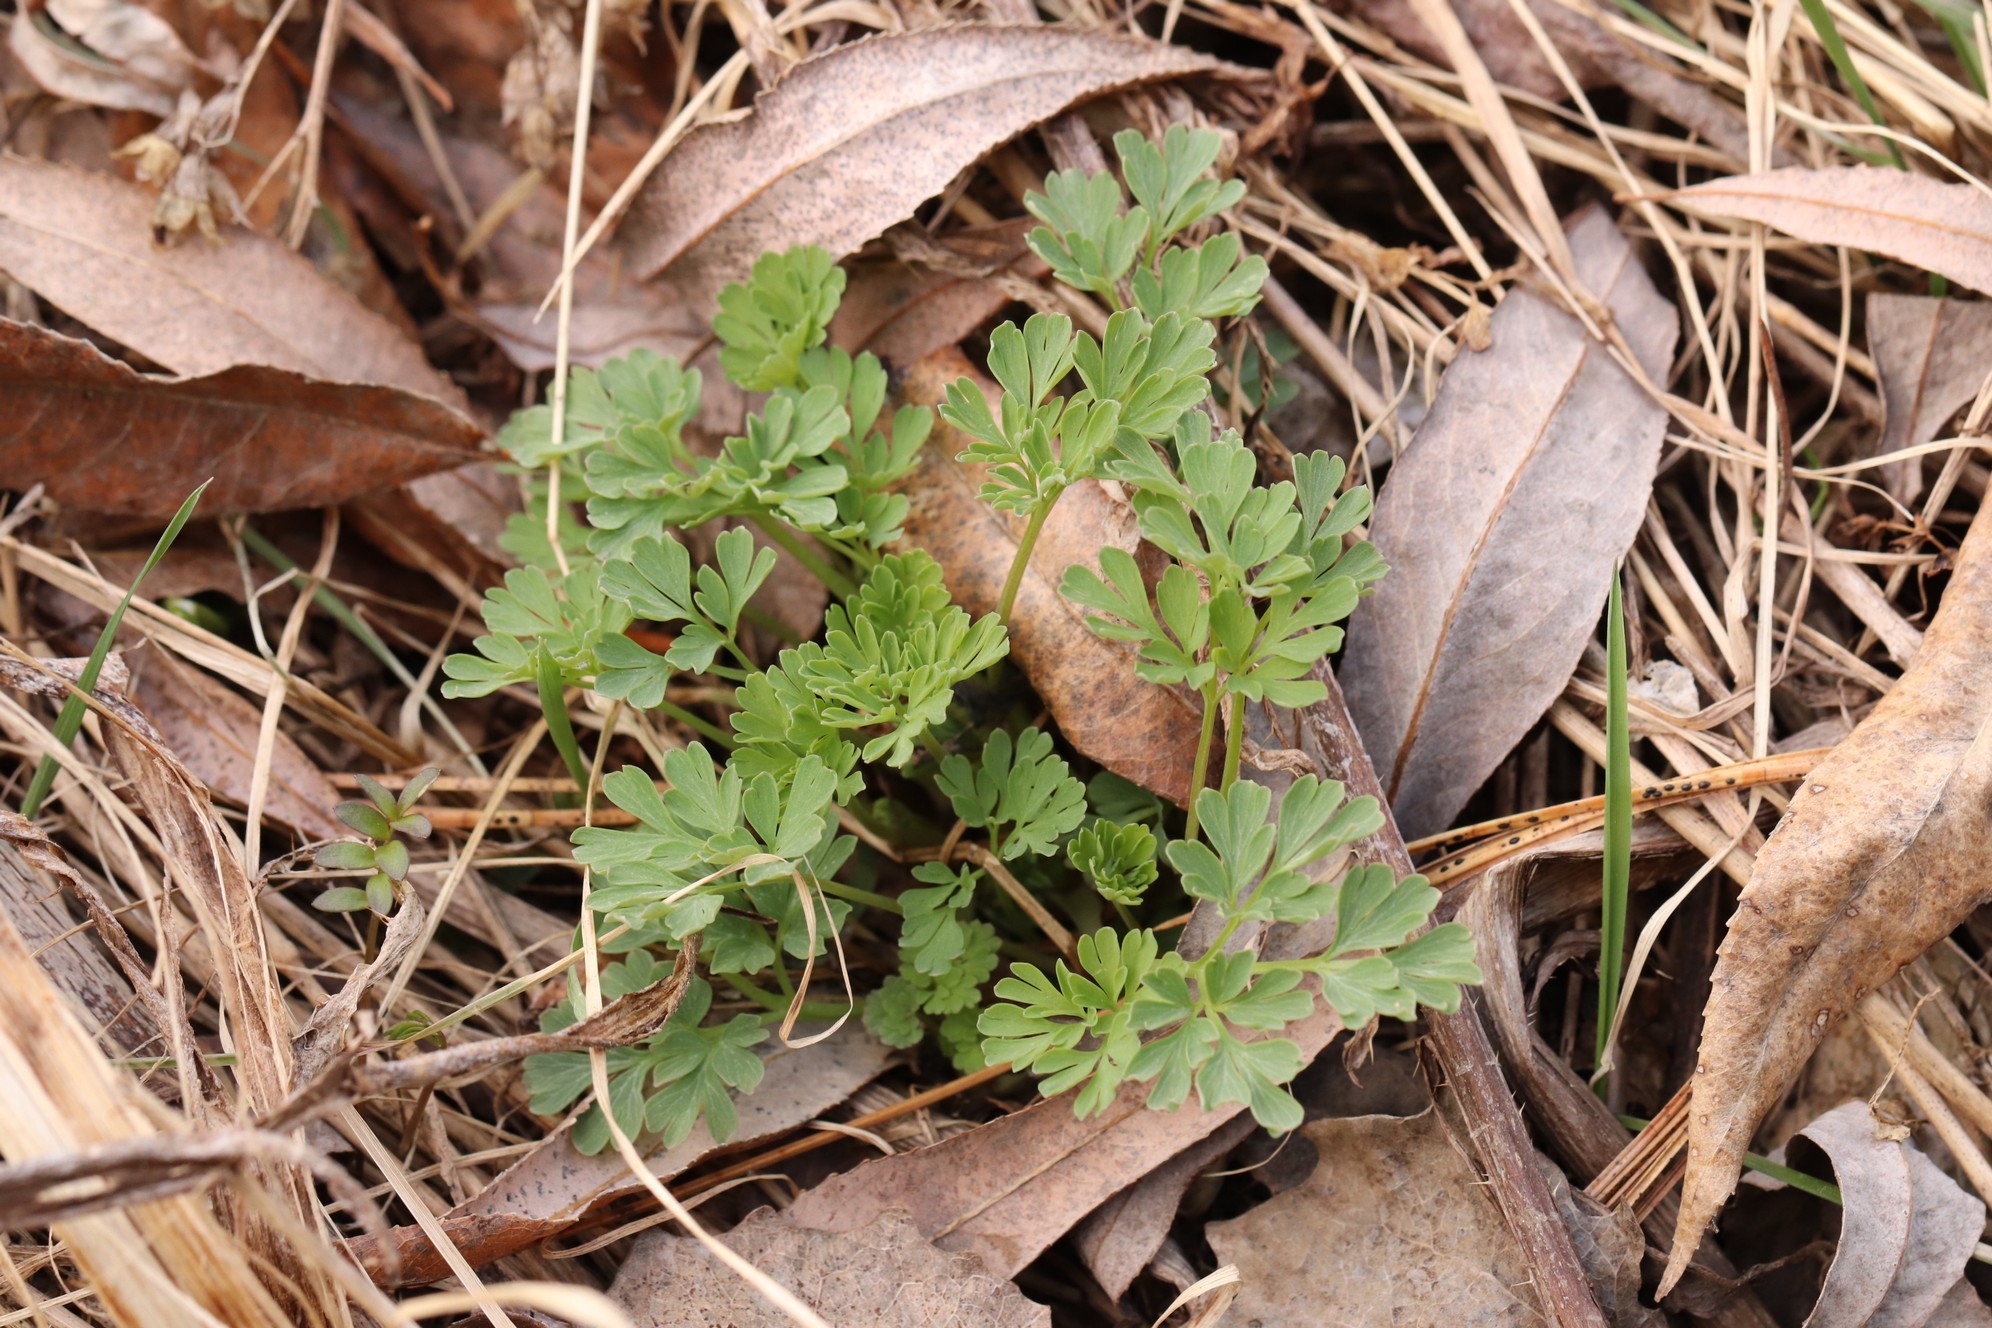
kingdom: Plantae
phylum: Tracheophyta
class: Magnoliopsida
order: Ranunculales
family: Papaveraceae
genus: Corydalis
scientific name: Corydalis capnoides
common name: Beaked corydalis
